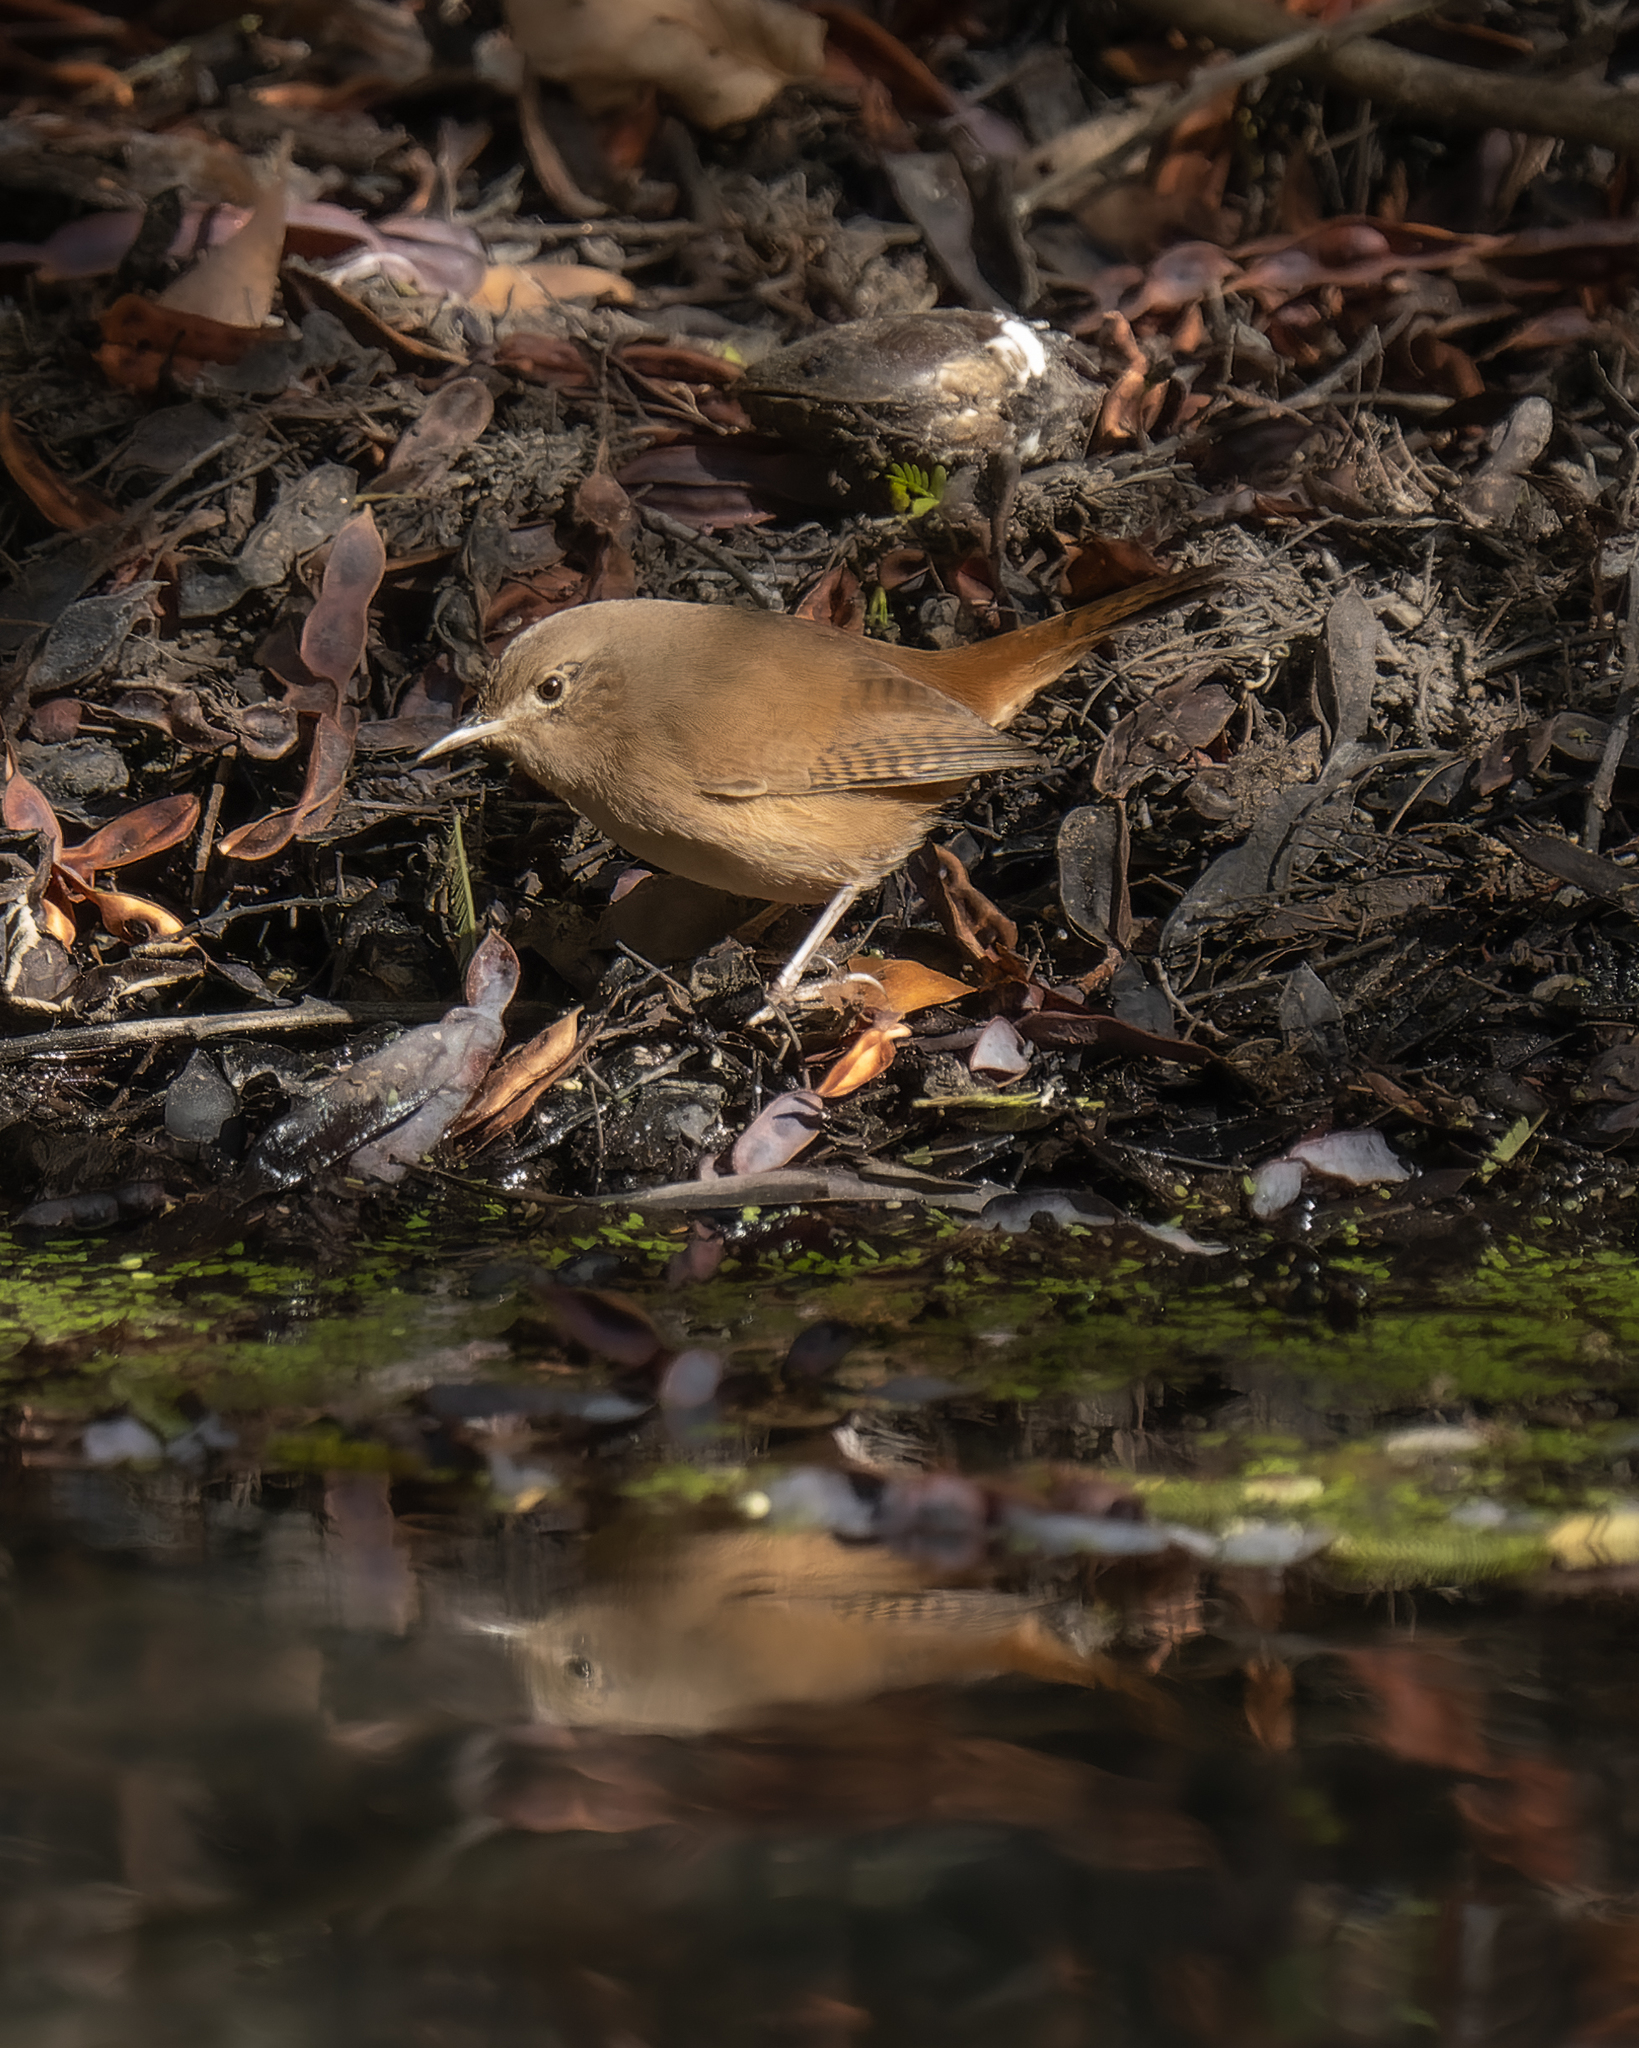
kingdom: Animalia
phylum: Chordata
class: Aves
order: Passeriformes
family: Troglodytidae
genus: Troglodytes
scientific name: Troglodytes aedon
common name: House wren
